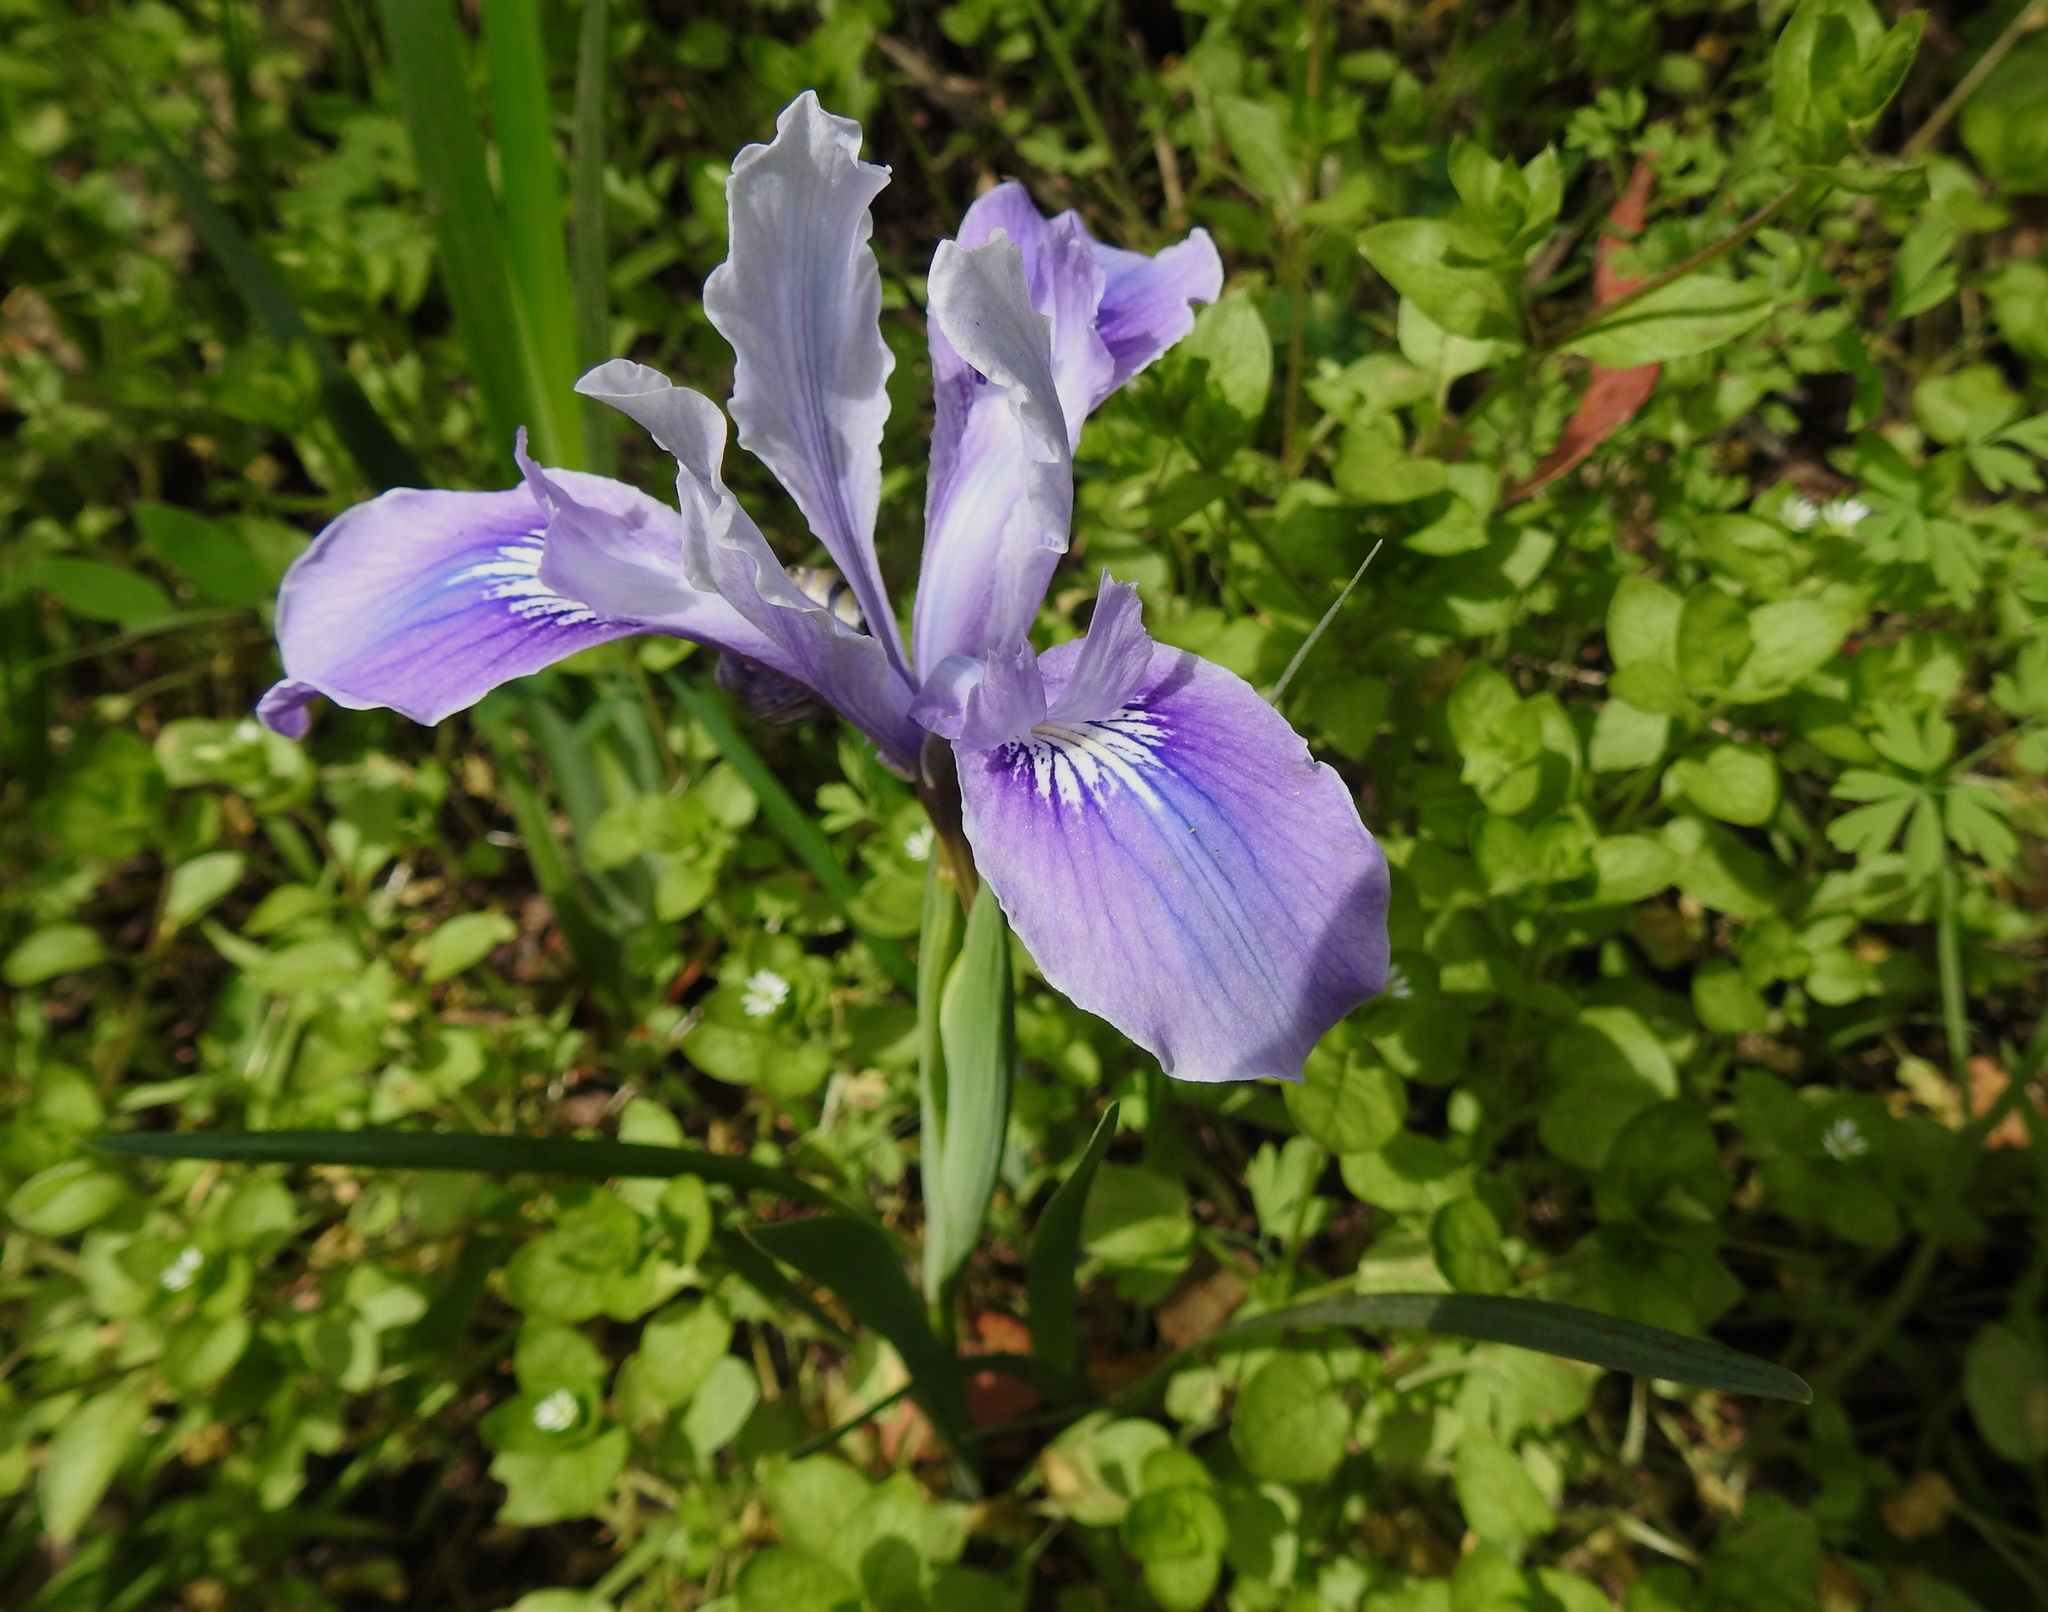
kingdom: Plantae
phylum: Tracheophyta
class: Liliopsida
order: Asparagales
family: Iridaceae
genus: Iris
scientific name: Iris douglasiana
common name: Marin iris
